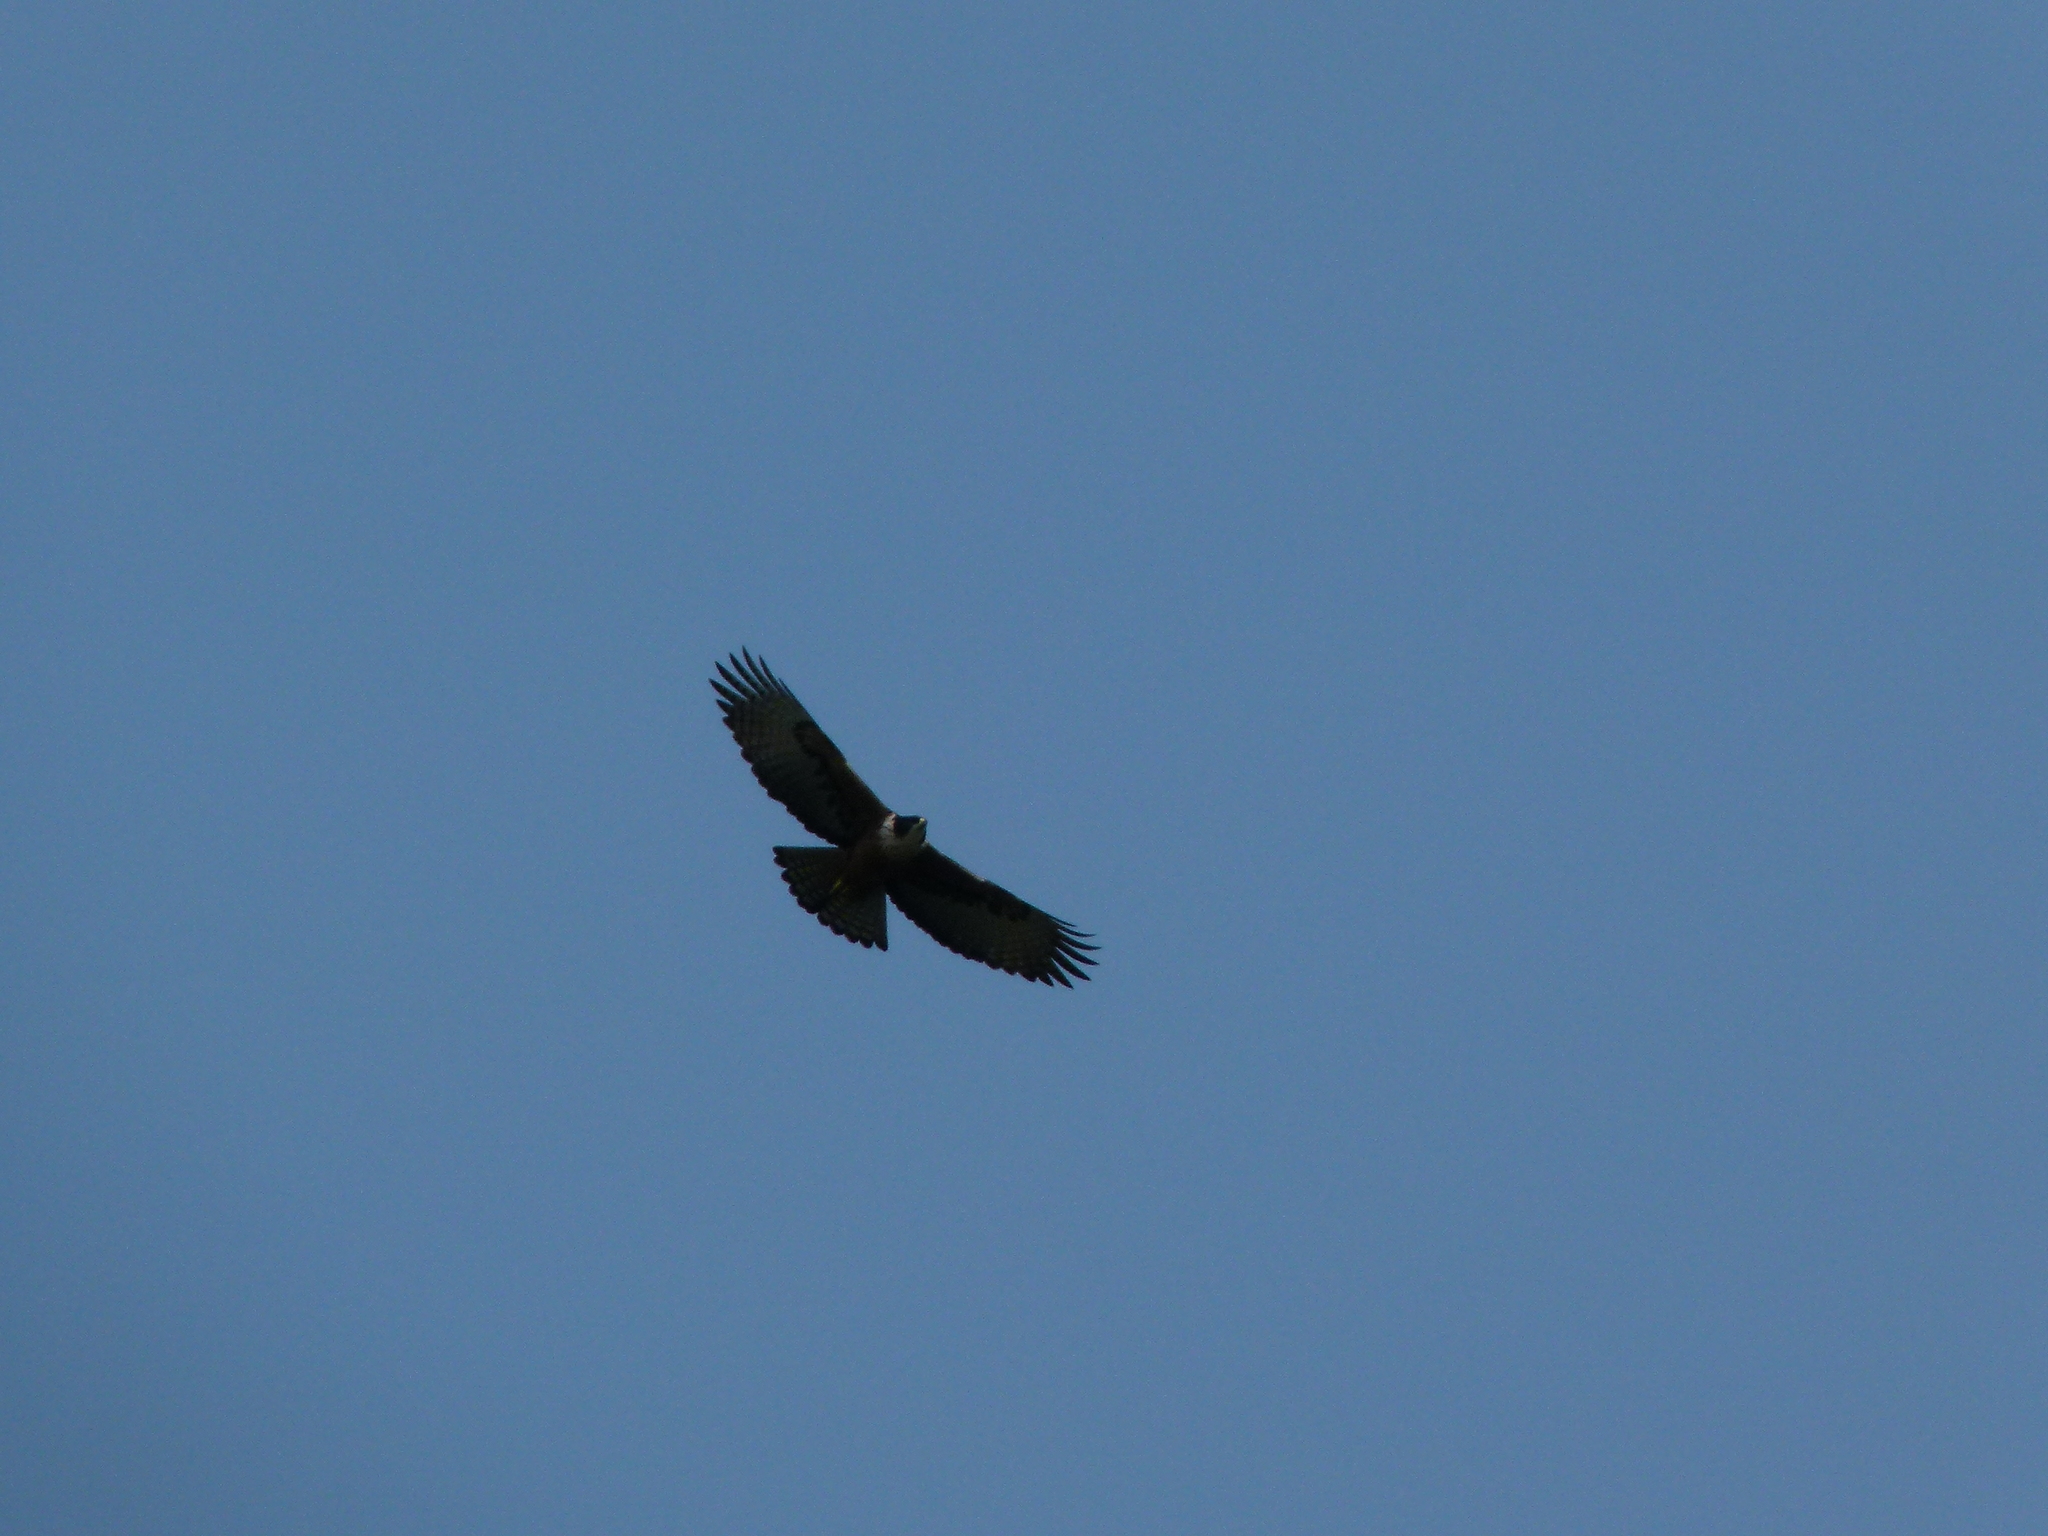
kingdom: Animalia
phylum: Chordata
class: Aves
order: Accipitriformes
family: Accipitridae
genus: Lophotriorchis
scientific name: Lophotriorchis kienerii
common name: Rufous-bellied eagle
